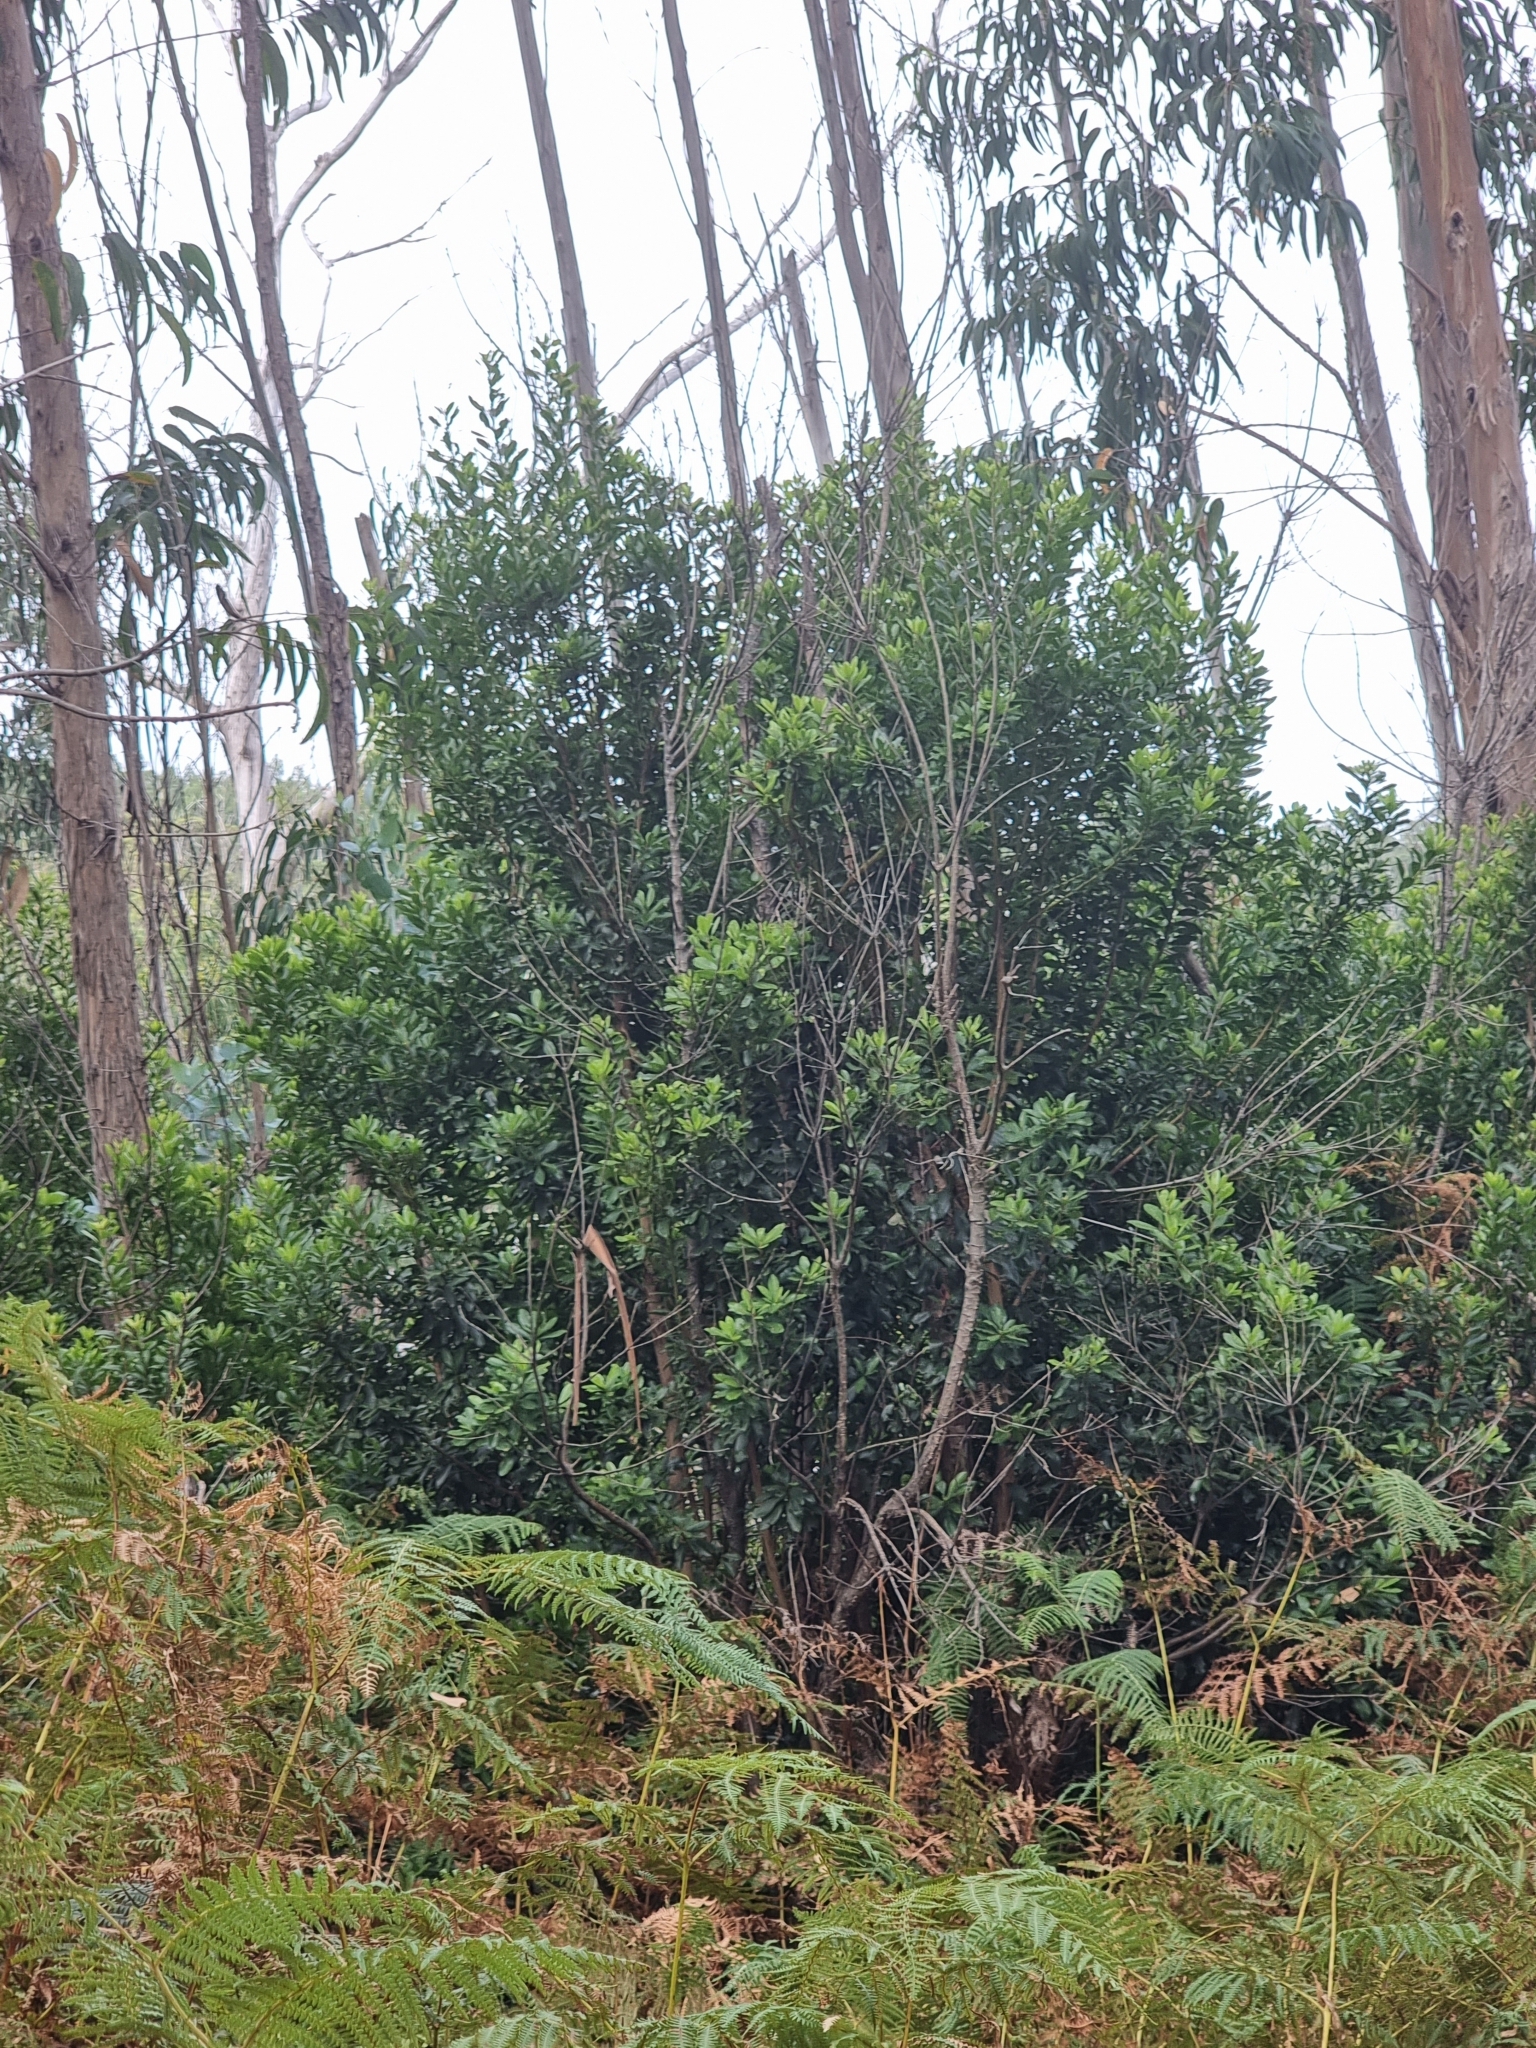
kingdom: Plantae
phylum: Tracheophyta
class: Magnoliopsida
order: Fagales
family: Myricaceae
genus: Morella
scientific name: Morella faya
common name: Firetree
